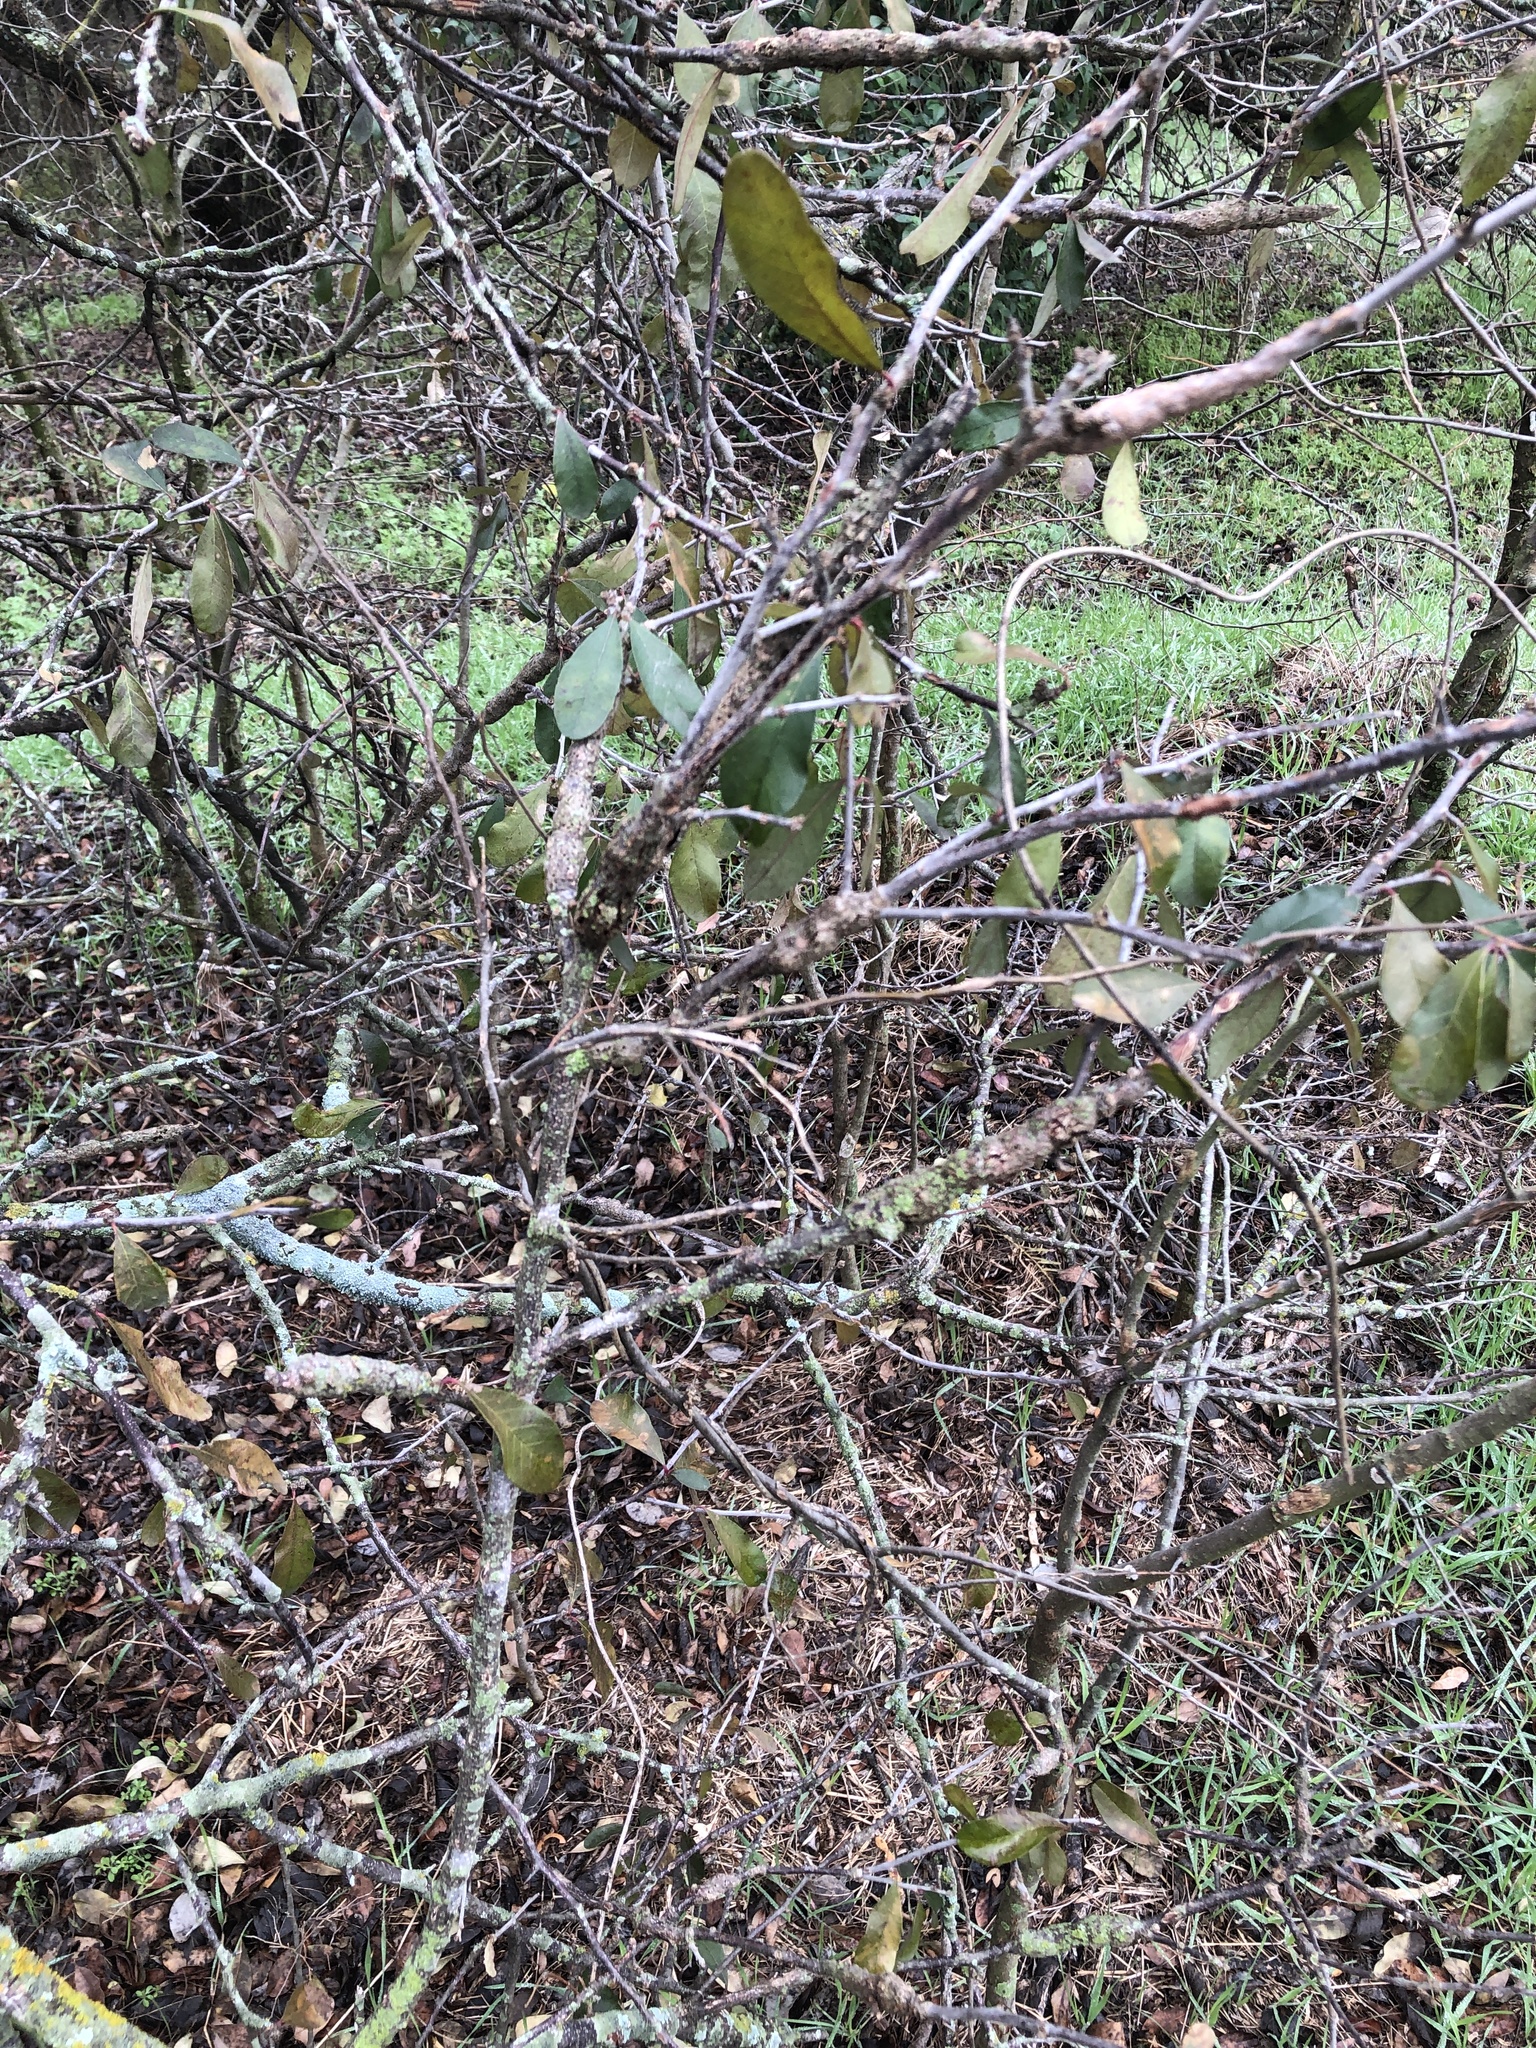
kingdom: Animalia
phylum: Arthropoda
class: Insecta
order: Diptera
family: Cecidomyiidae
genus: Bruggmanniella
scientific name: Bruggmanniella bumeliae
